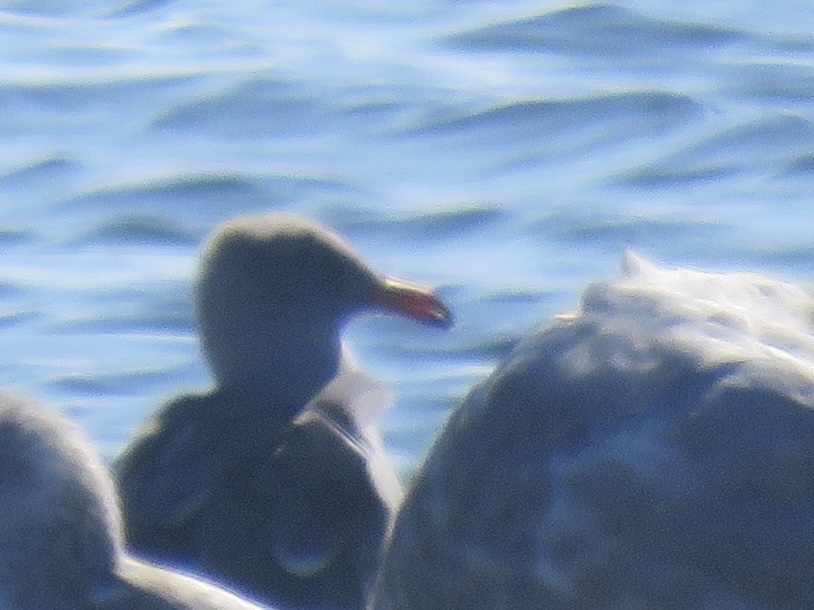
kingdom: Animalia
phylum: Chordata
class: Aves
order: Charadriiformes
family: Laridae
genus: Larus
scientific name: Larus heermanni
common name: Heermann's gull
